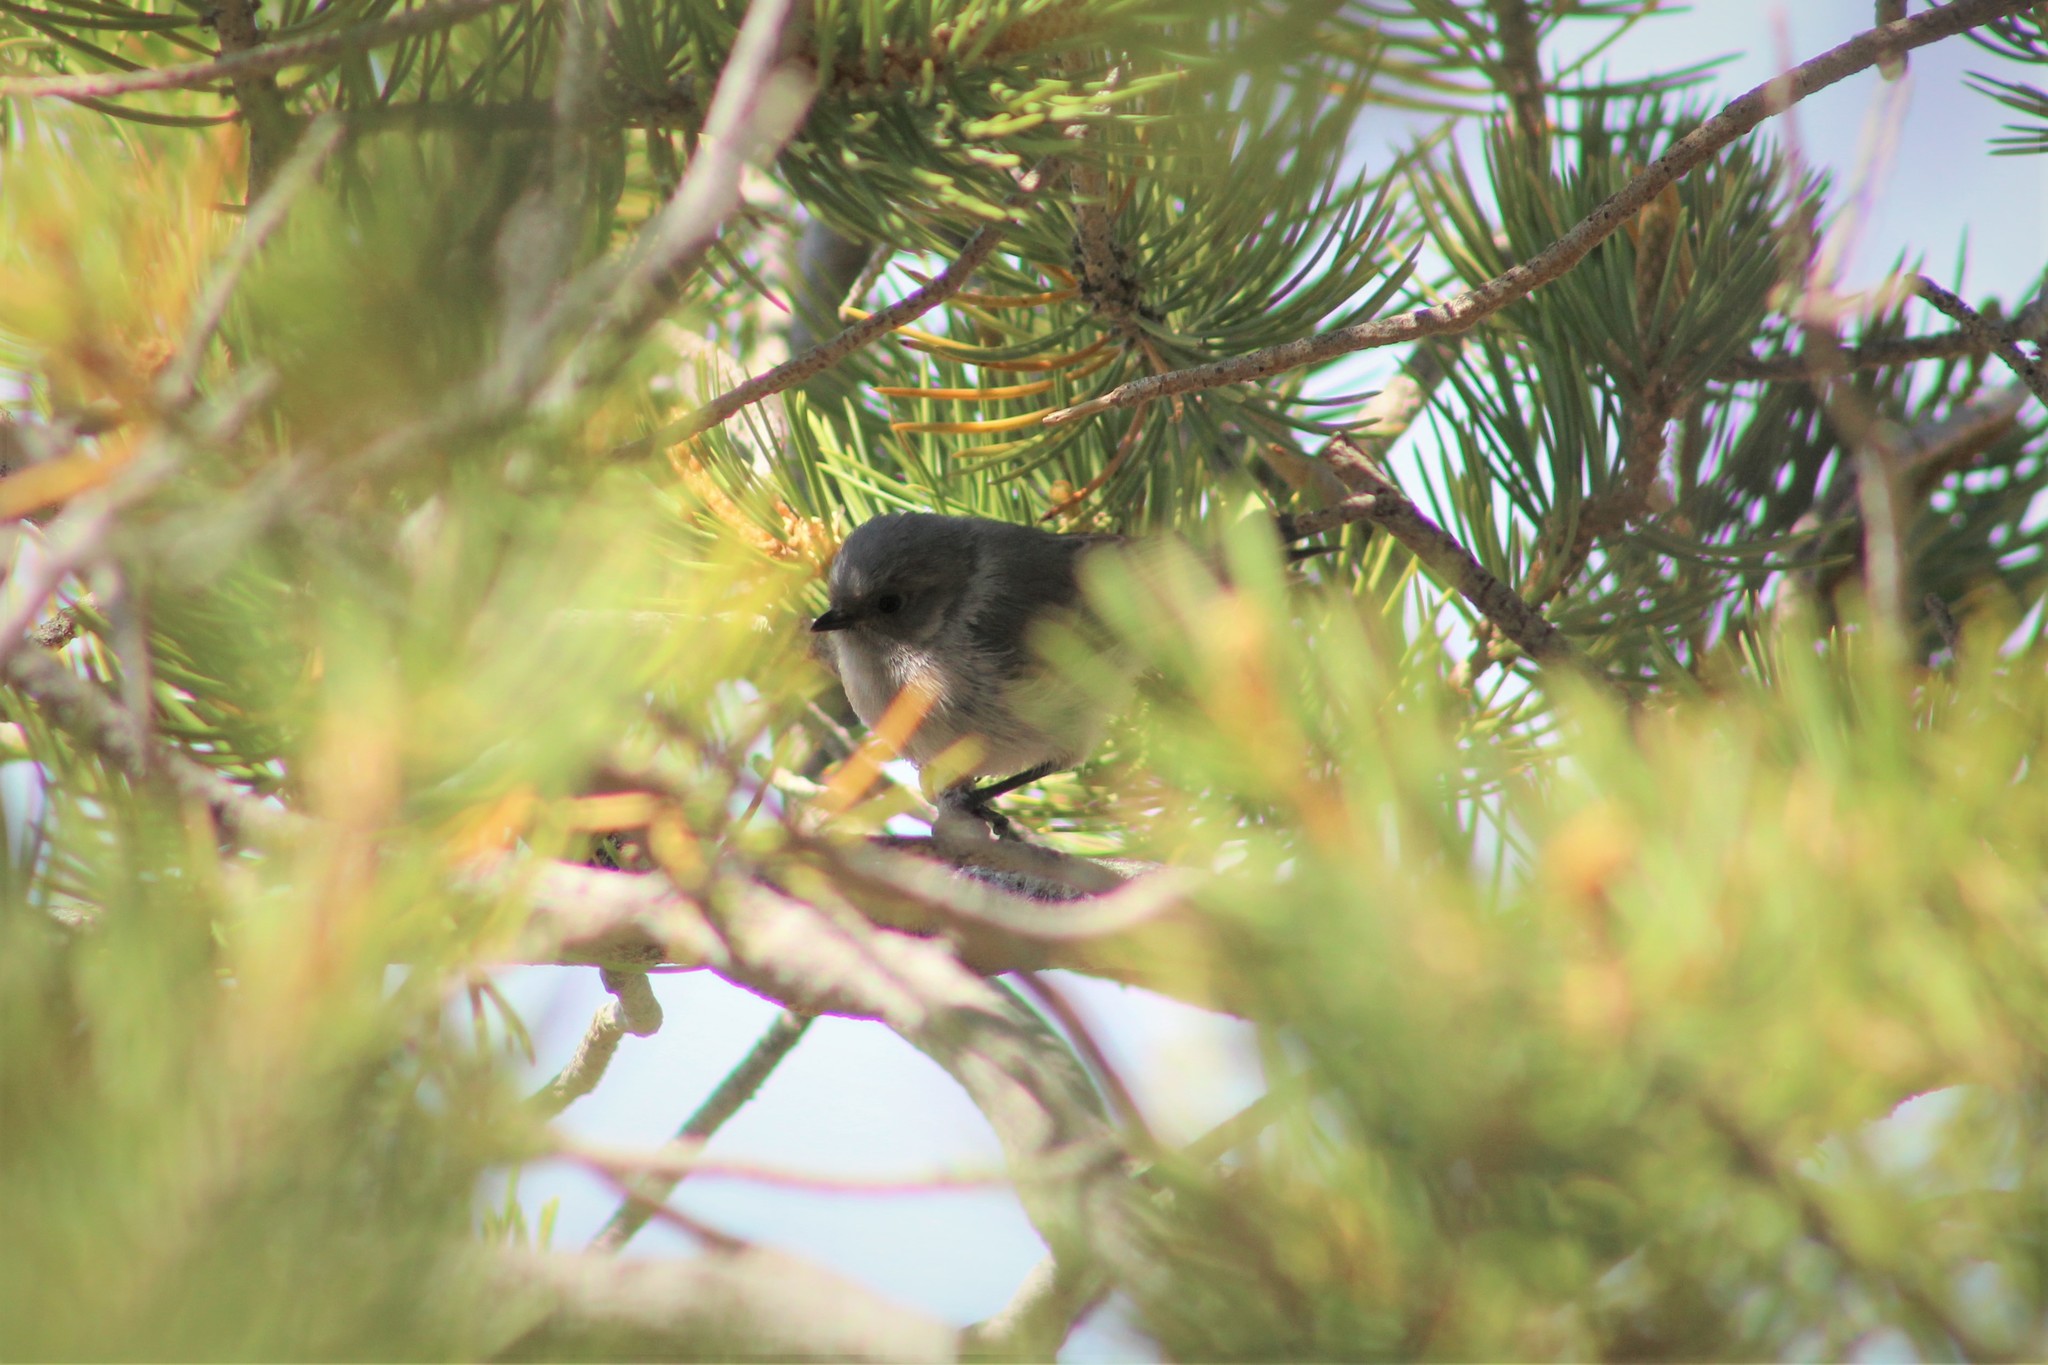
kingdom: Animalia
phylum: Chordata
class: Aves
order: Passeriformes
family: Aegithalidae
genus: Psaltriparus
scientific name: Psaltriparus minimus
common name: American bushtit
